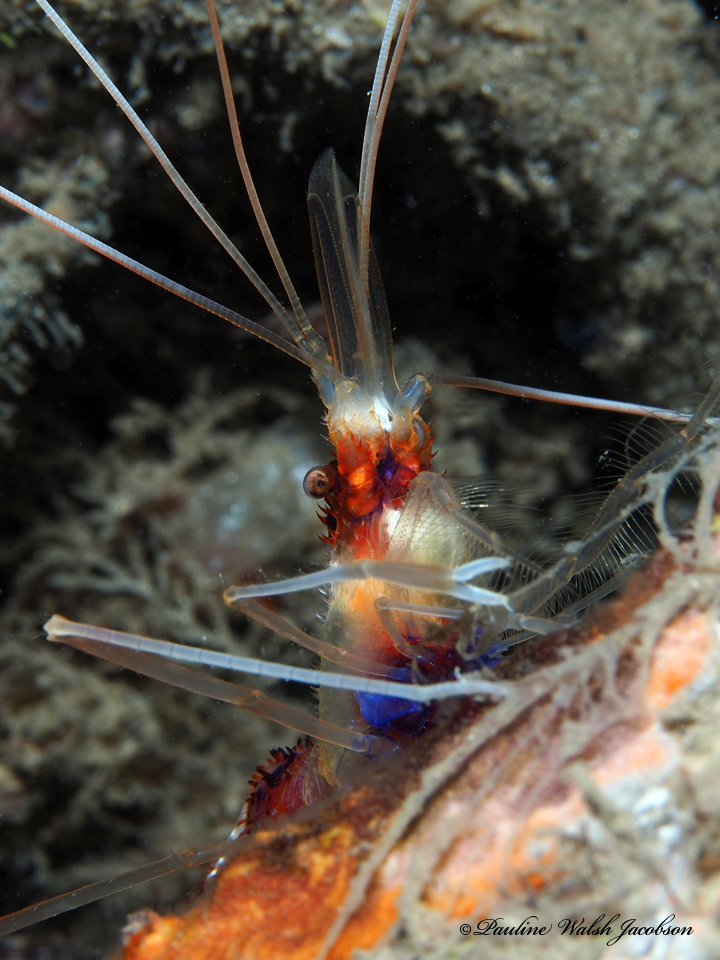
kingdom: Animalia
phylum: Arthropoda
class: Malacostraca
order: Decapoda
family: Stenopodidae
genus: Stenopus
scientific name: Stenopus hispidus
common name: Banded coral shrimp
